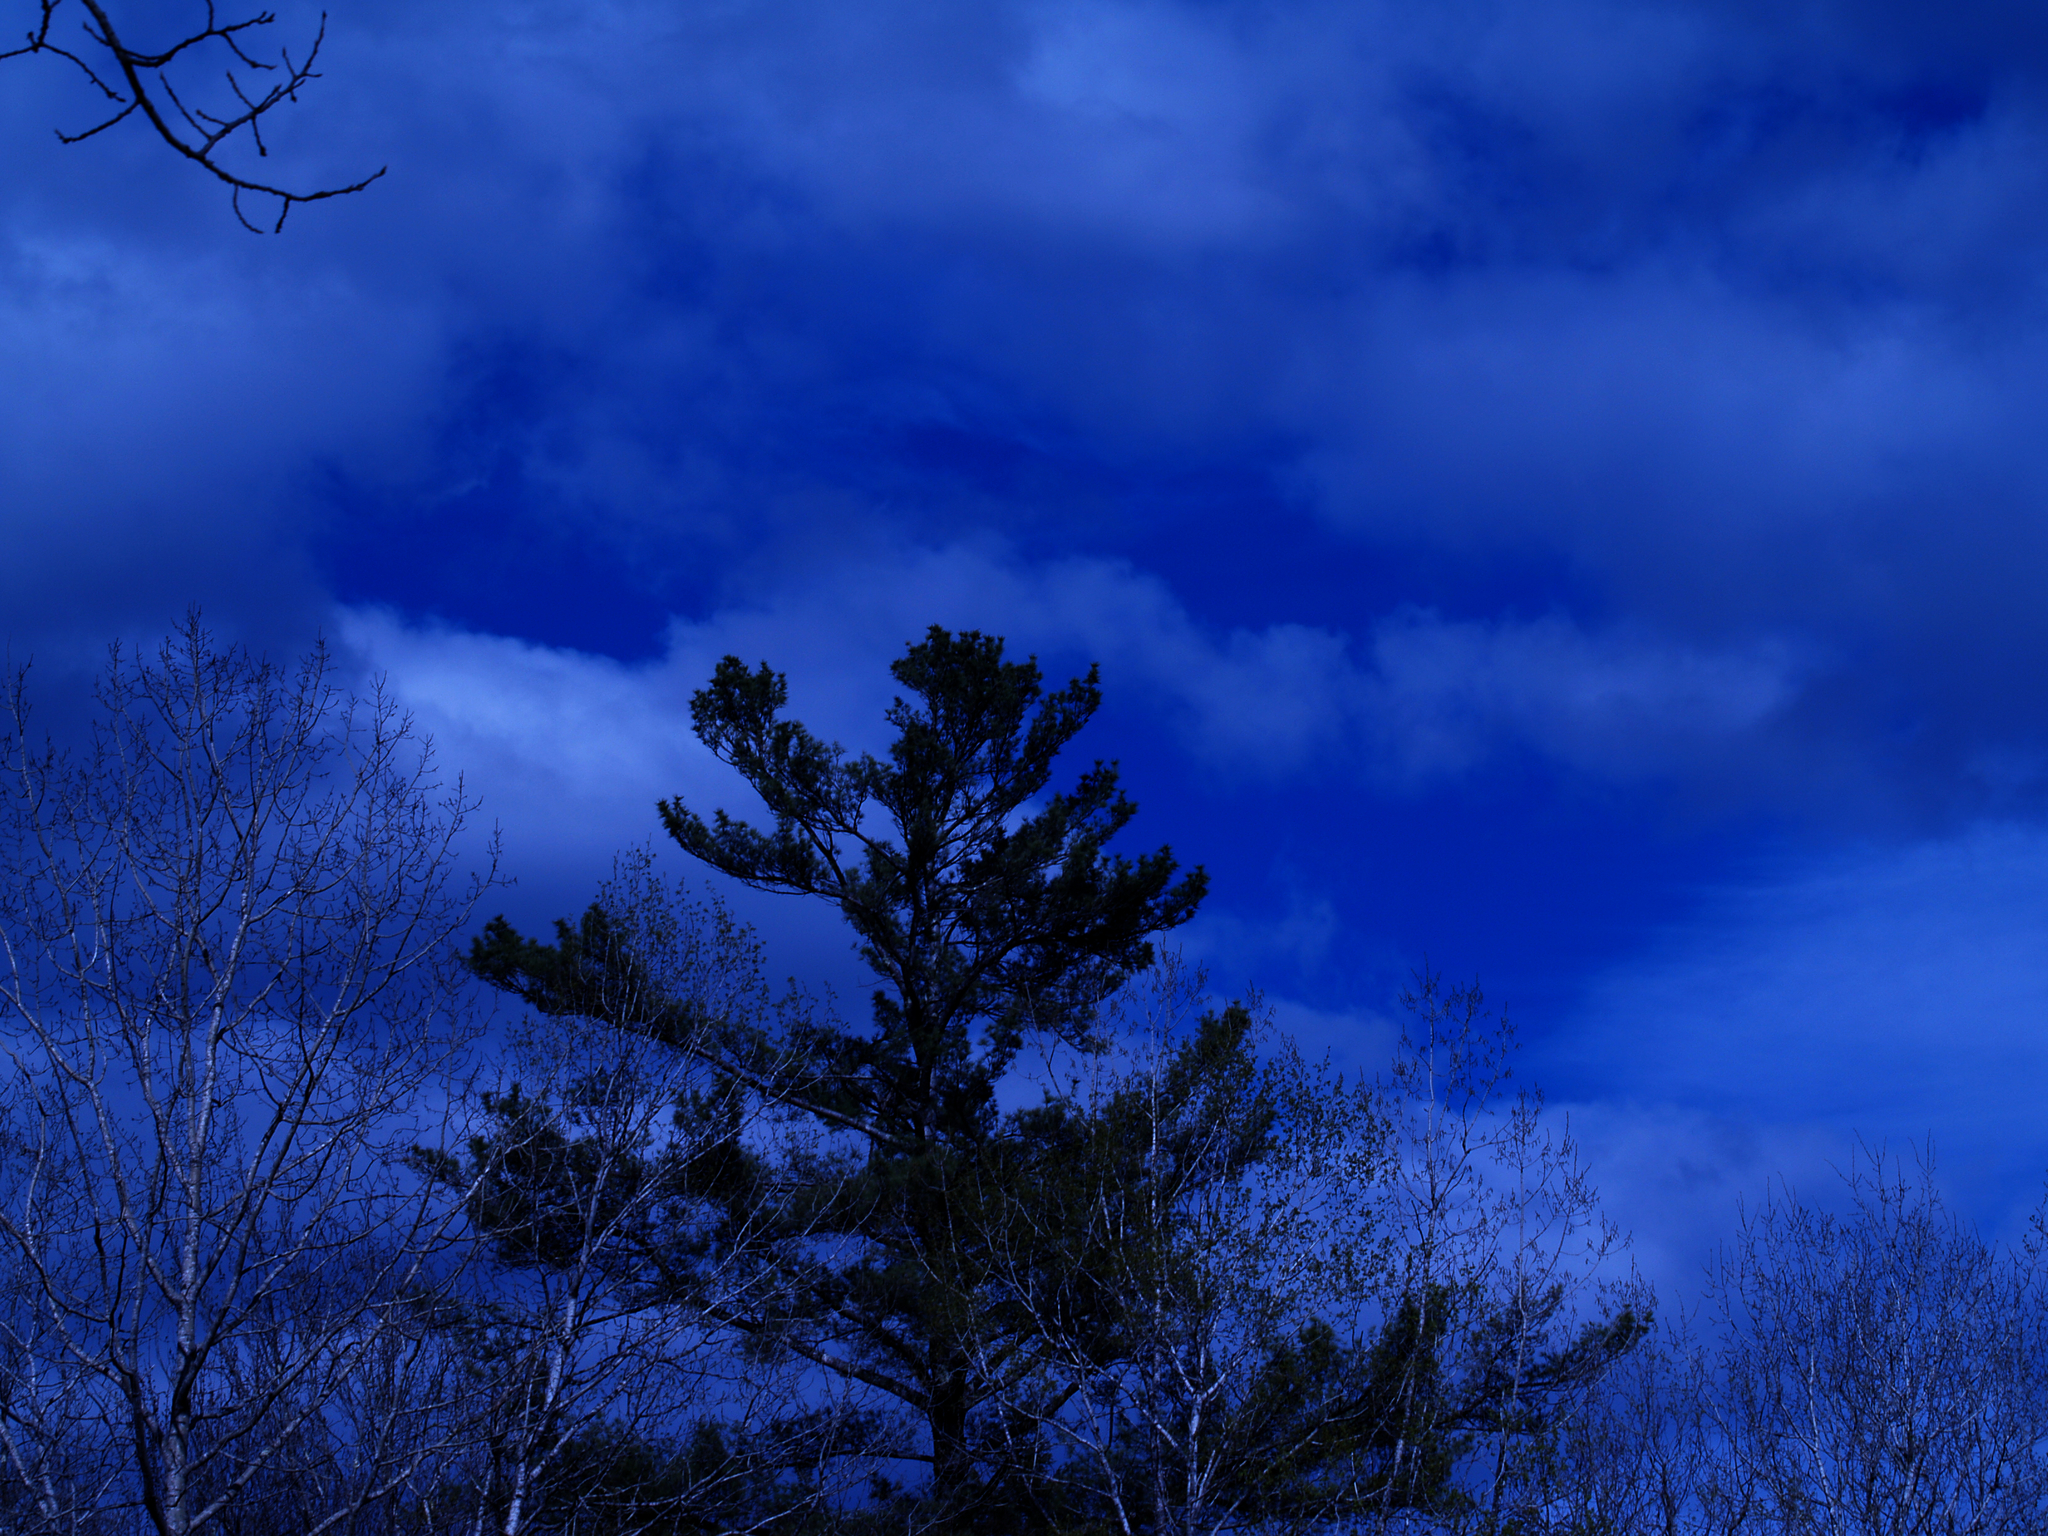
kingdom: Plantae
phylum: Tracheophyta
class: Pinopsida
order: Pinales
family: Pinaceae
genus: Pinus
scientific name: Pinus strobus
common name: Weymouth pine
